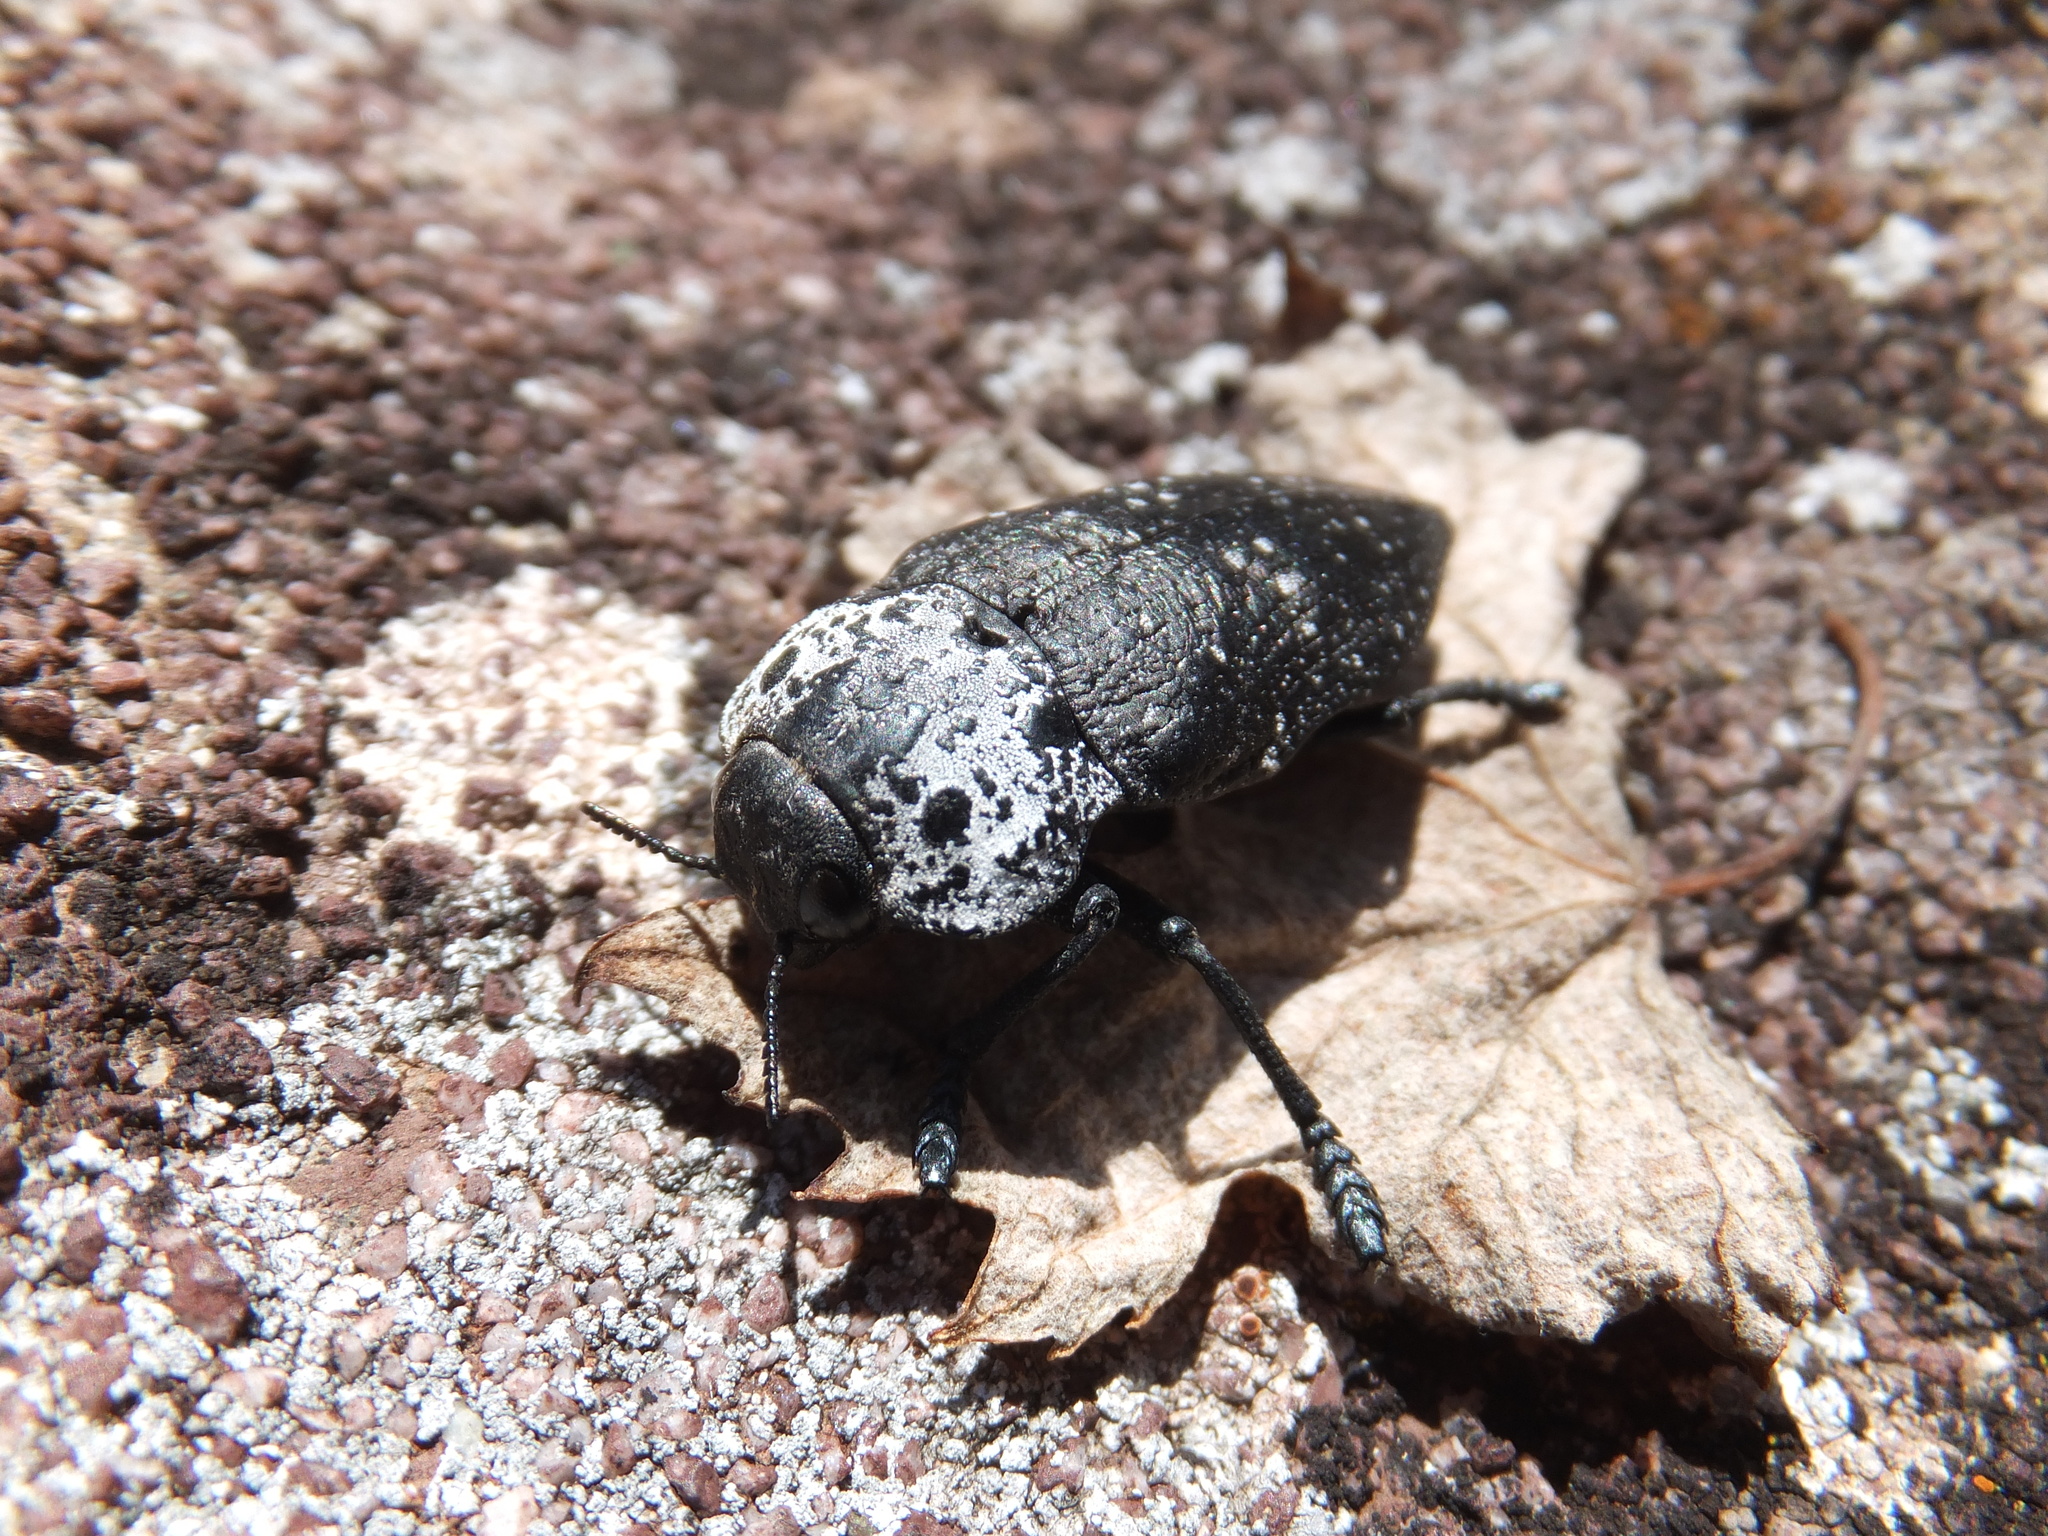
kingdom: Animalia
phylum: Arthropoda
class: Insecta
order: Coleoptera
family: Buprestidae
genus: Capnodis
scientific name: Capnodis tenebrionis
